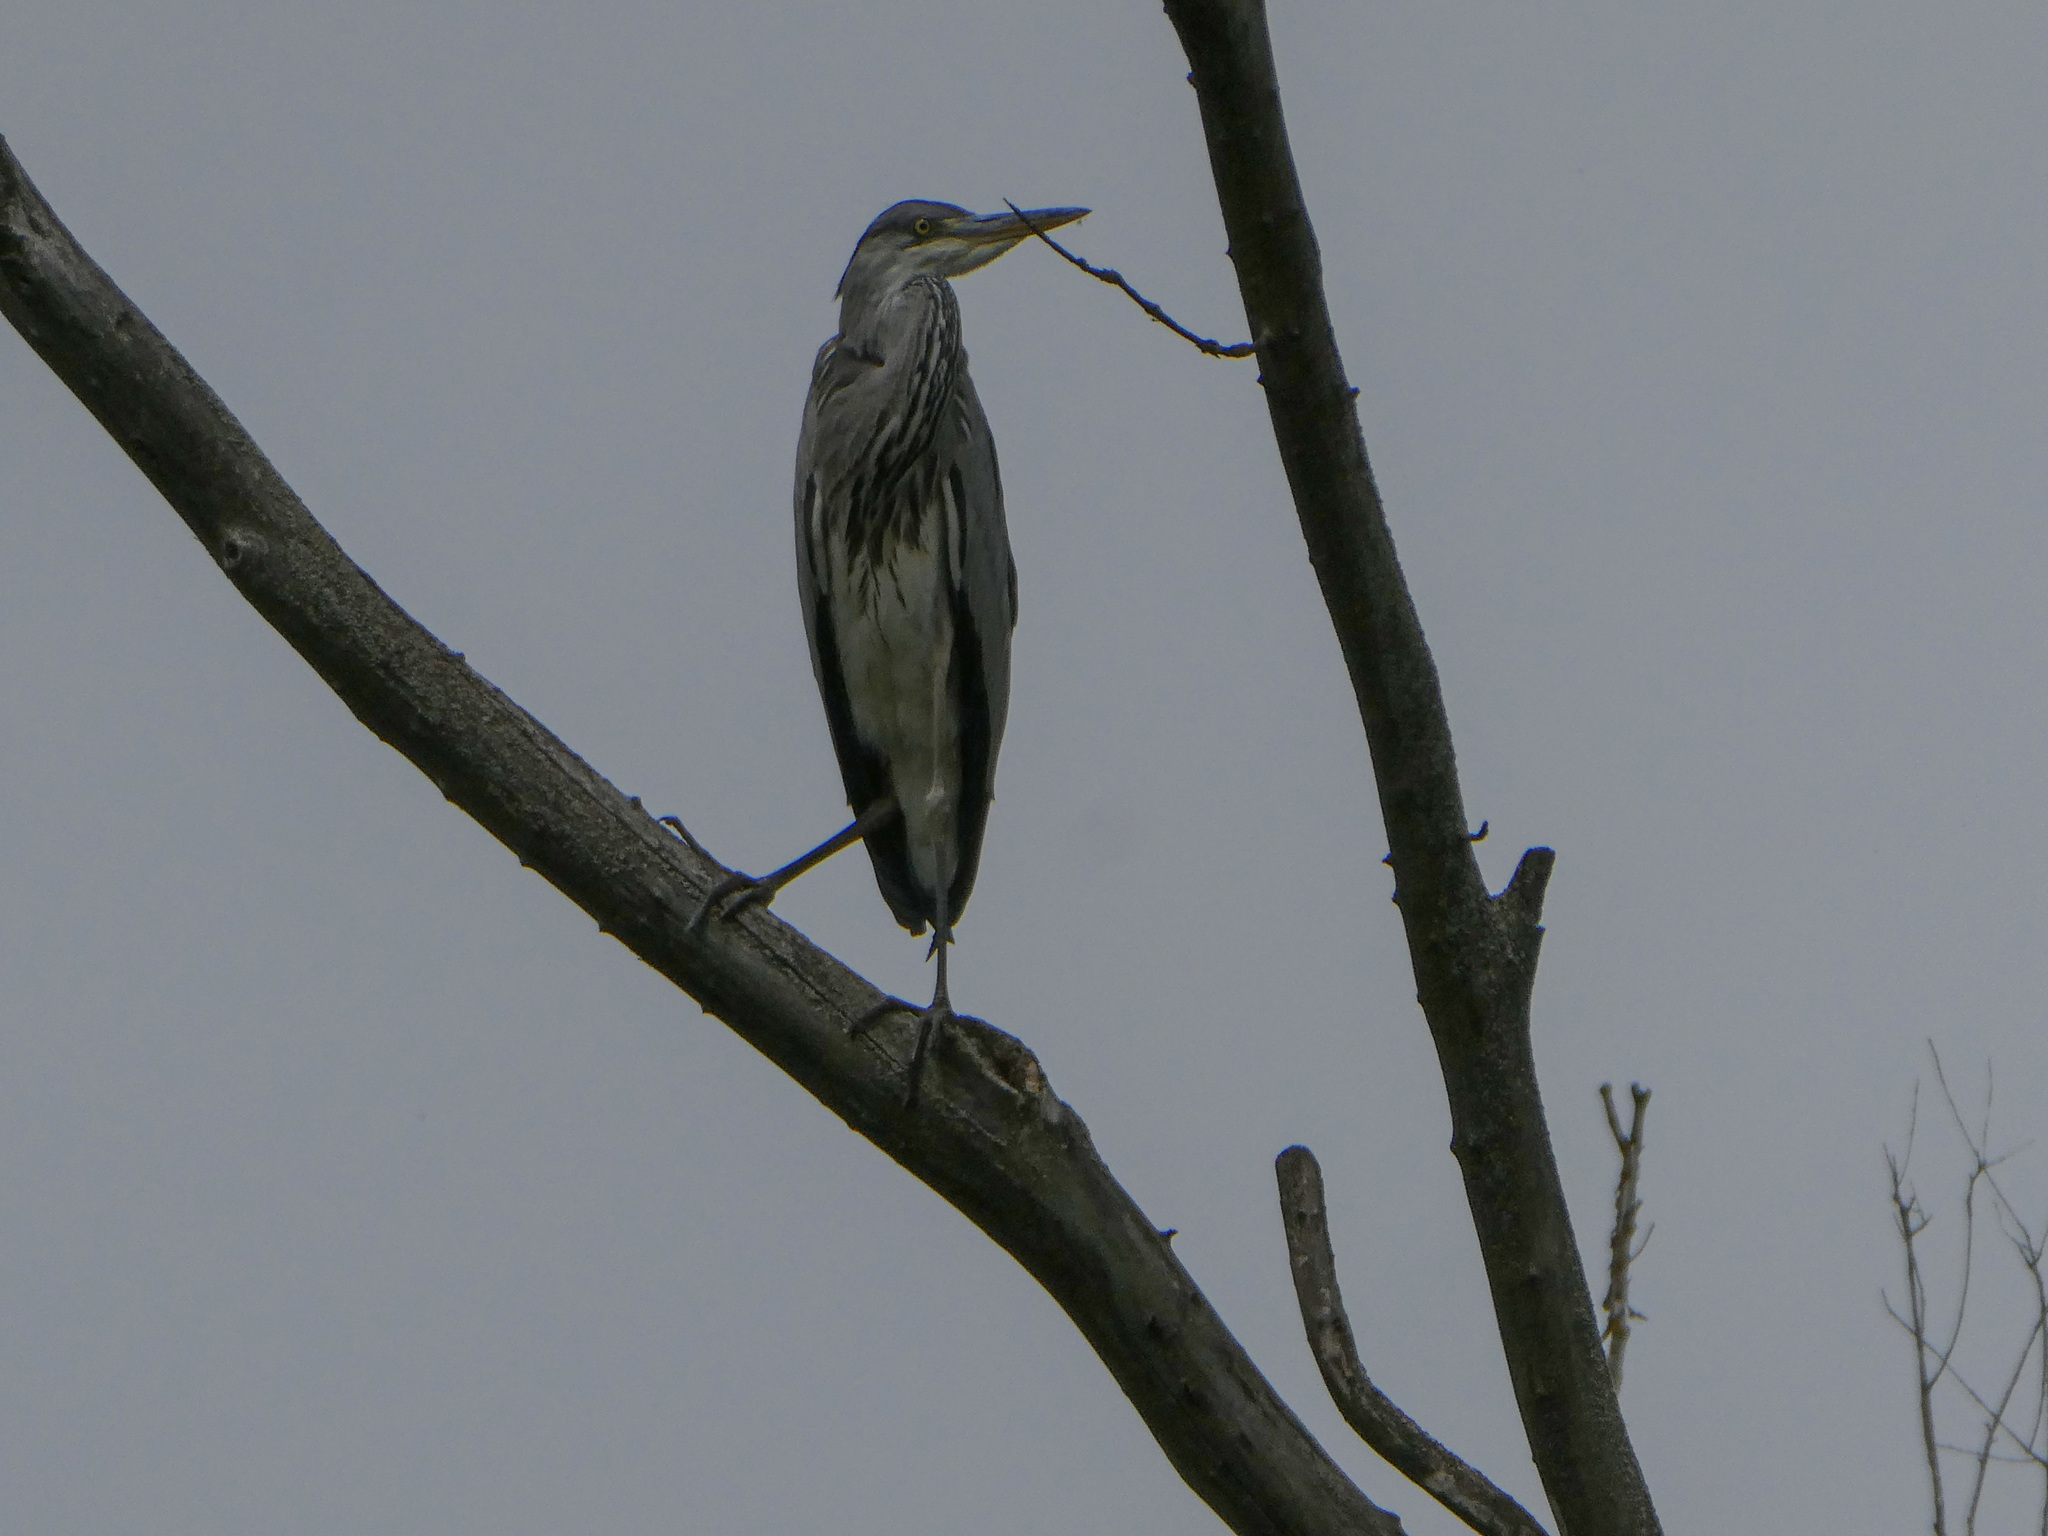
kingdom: Animalia
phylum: Chordata
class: Aves
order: Pelecaniformes
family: Ardeidae
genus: Ardea
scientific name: Ardea cinerea
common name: Grey heron
